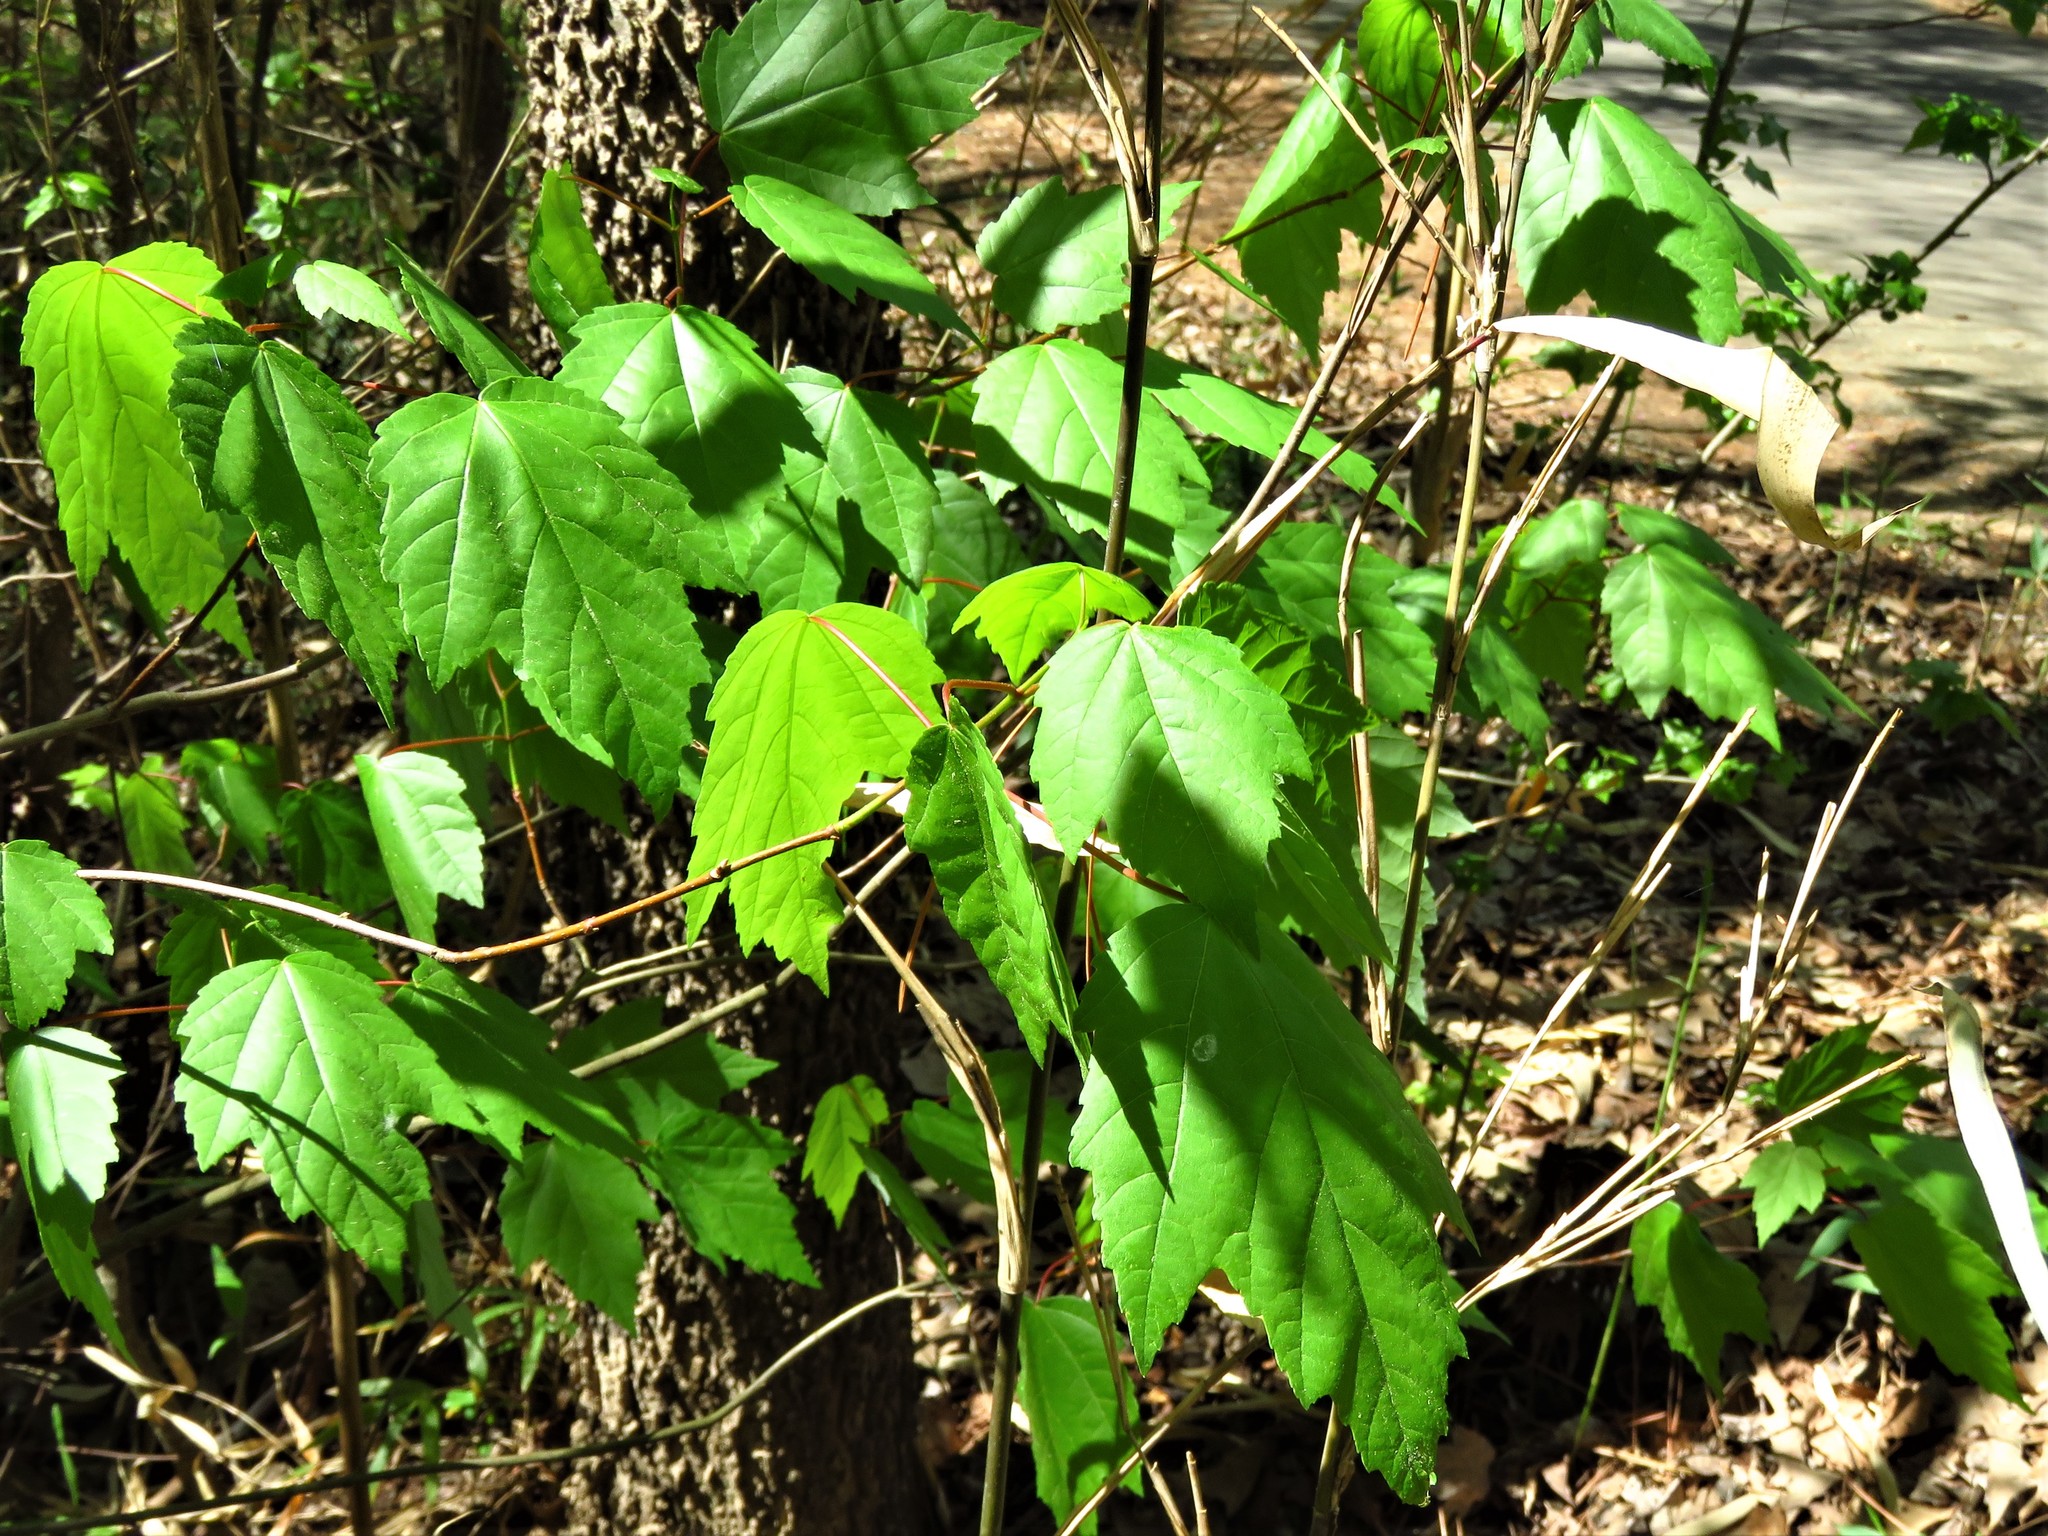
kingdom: Plantae
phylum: Tracheophyta
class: Magnoliopsida
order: Sapindales
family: Sapindaceae
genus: Acer
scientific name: Acer rubrum
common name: Red maple
